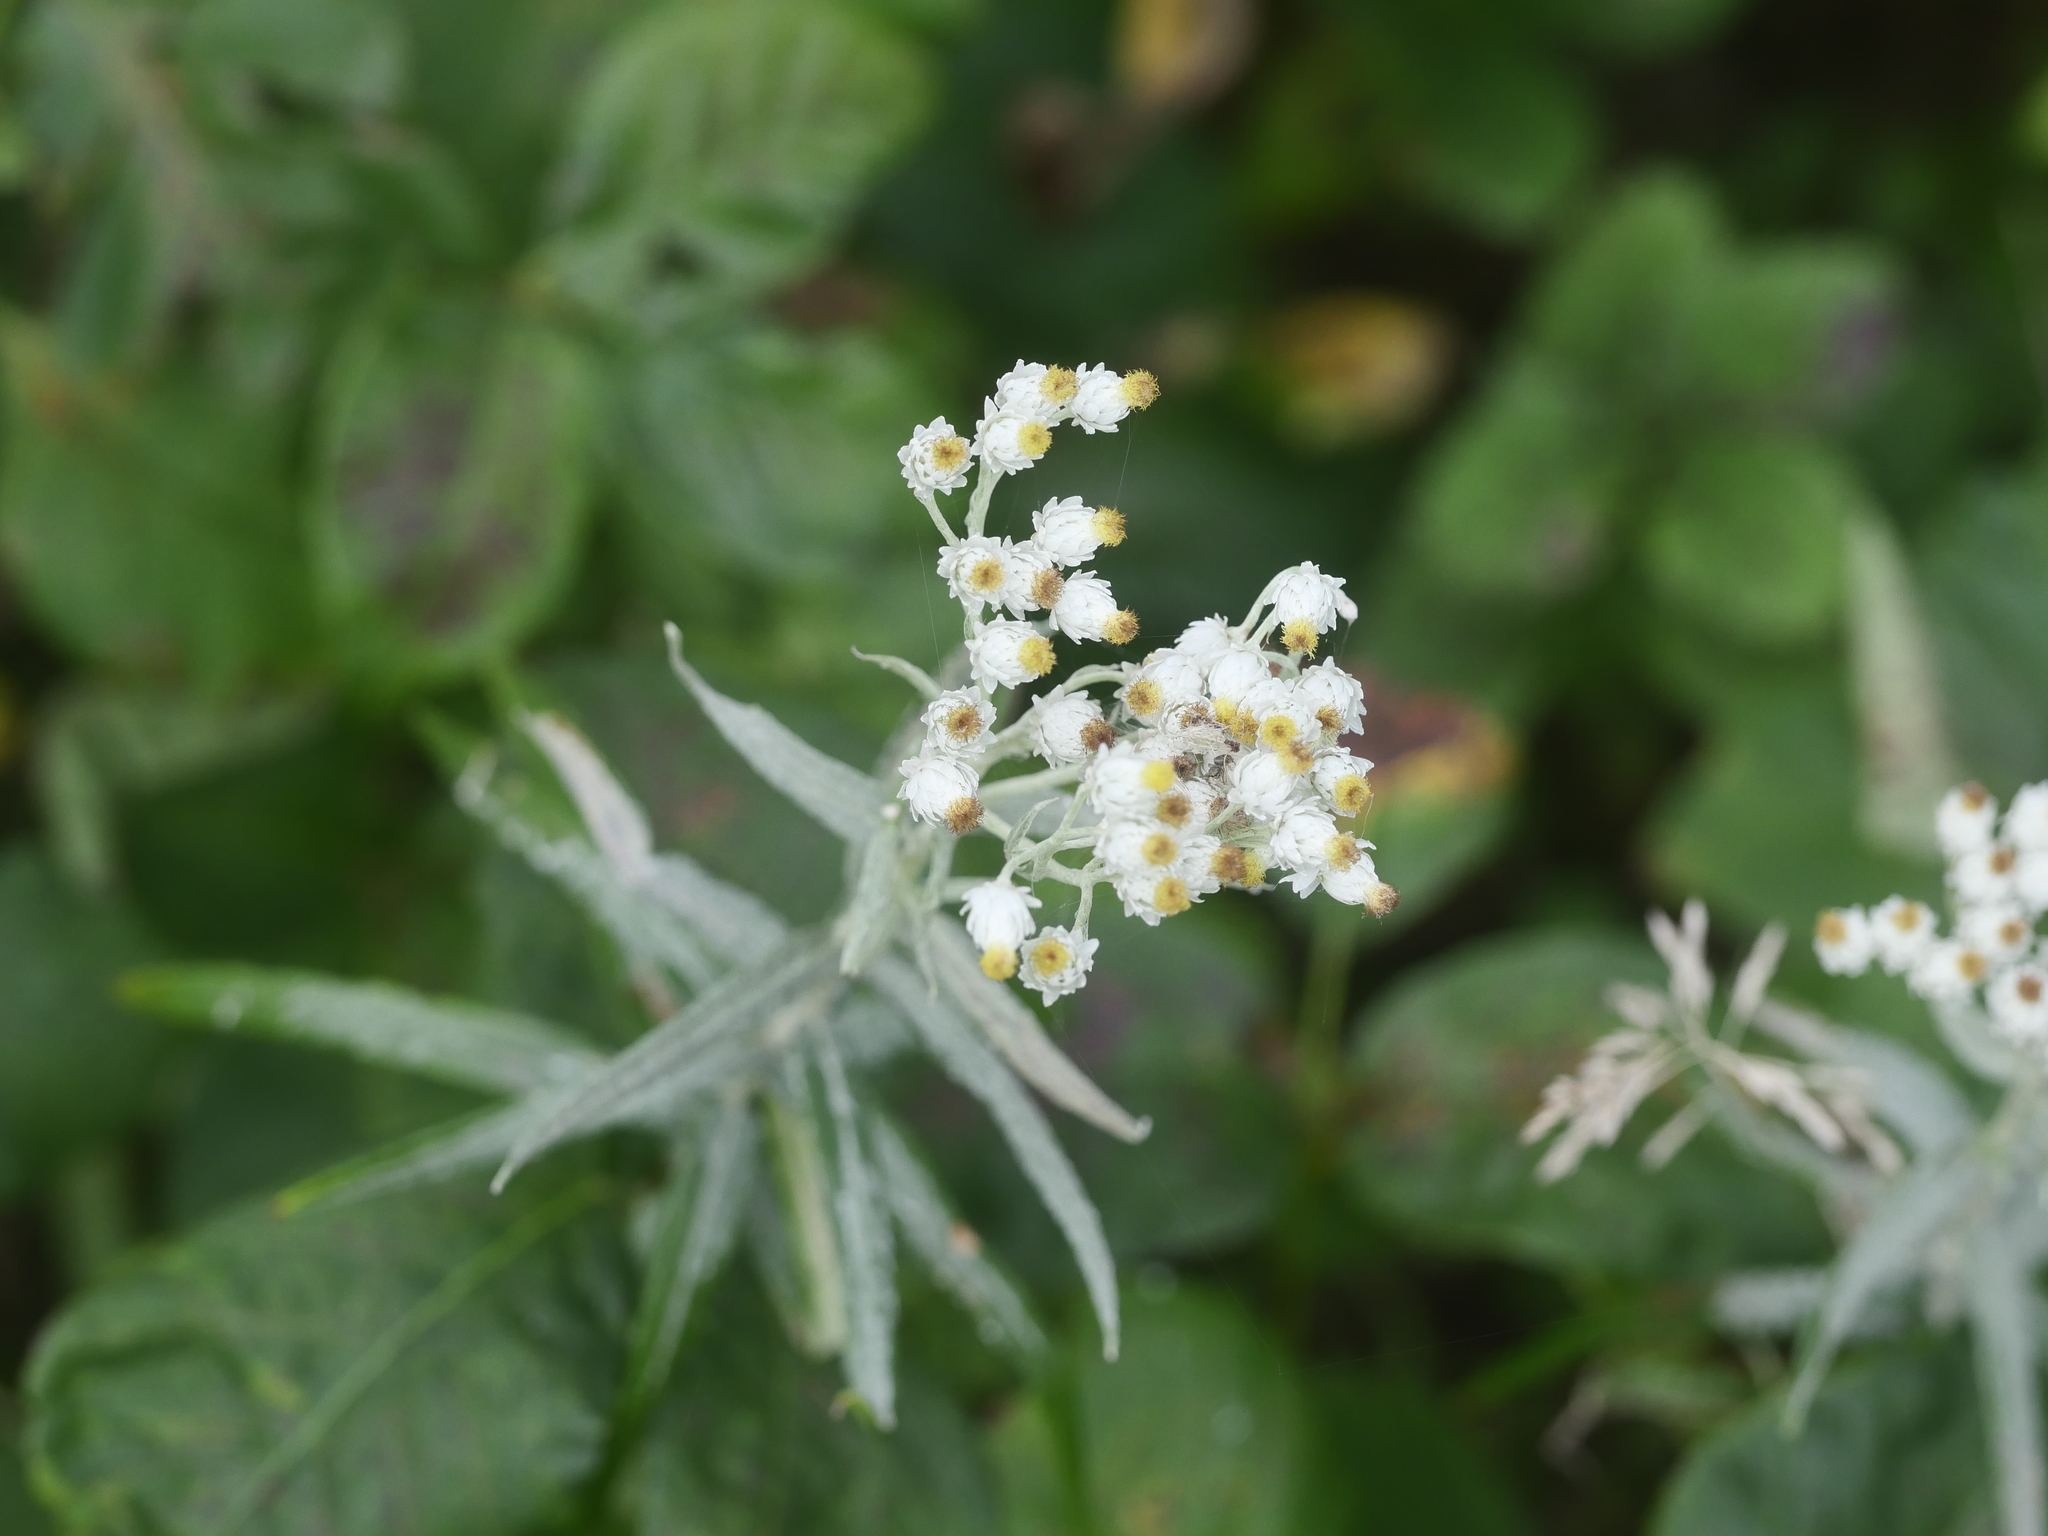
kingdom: Plantae
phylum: Tracheophyta
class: Magnoliopsida
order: Asterales
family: Asteraceae
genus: Anaphalis
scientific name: Anaphalis margaritacea
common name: Pearly everlasting
